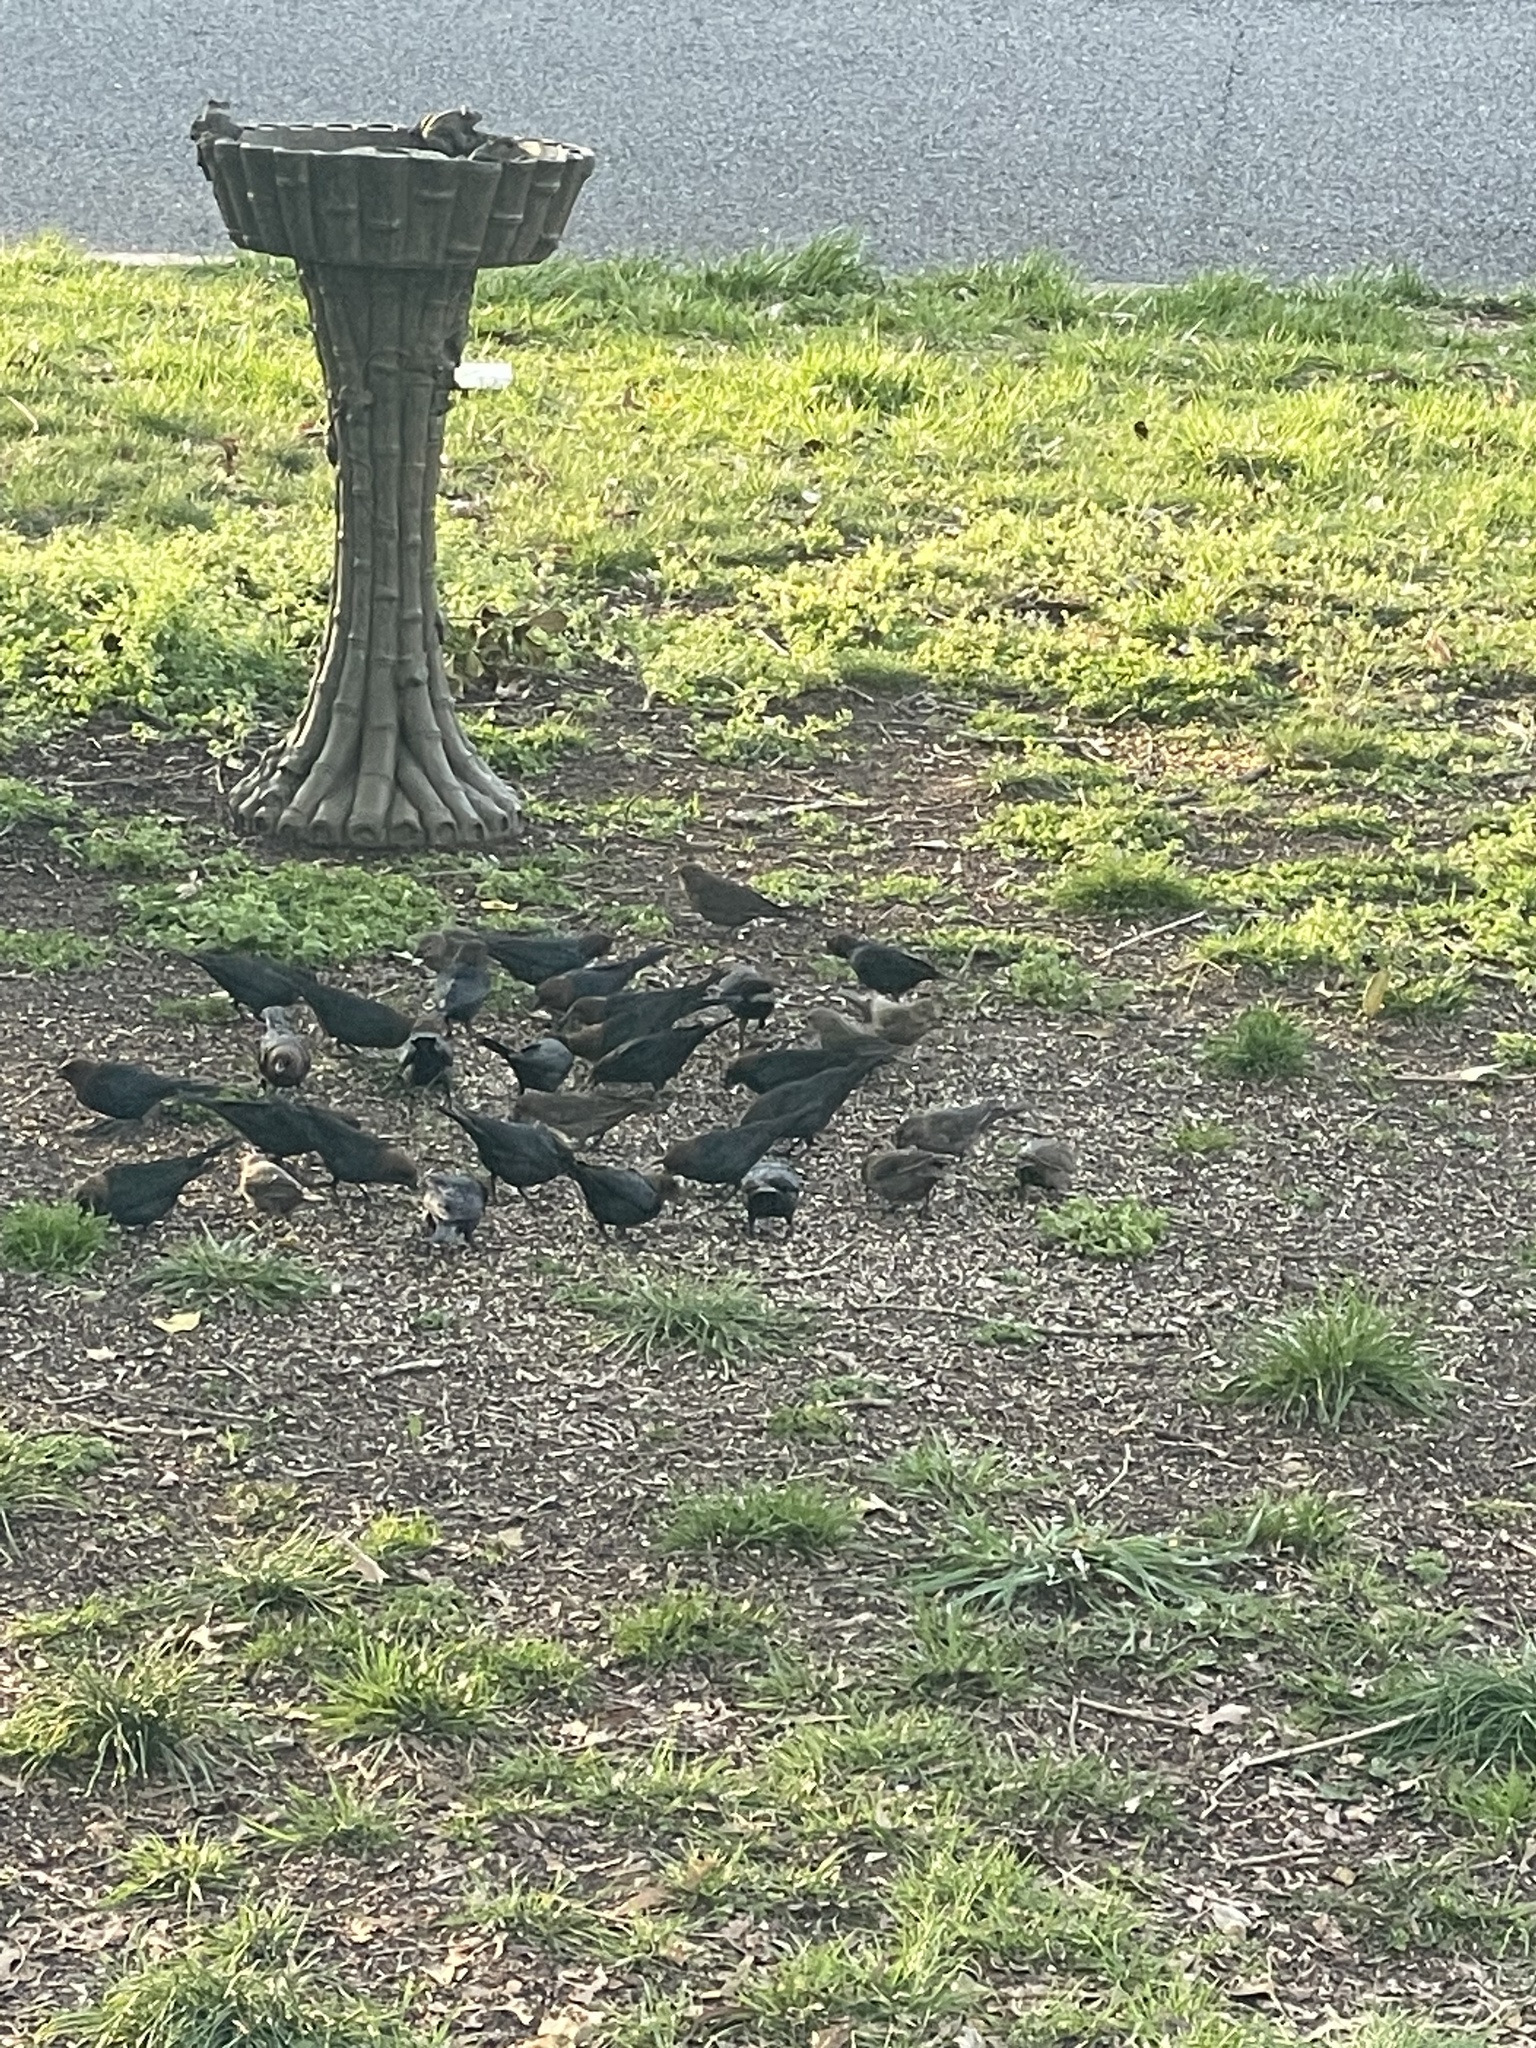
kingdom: Animalia
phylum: Chordata
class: Aves
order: Passeriformes
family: Icteridae
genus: Molothrus
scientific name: Molothrus ater
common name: Brown-headed cowbird
